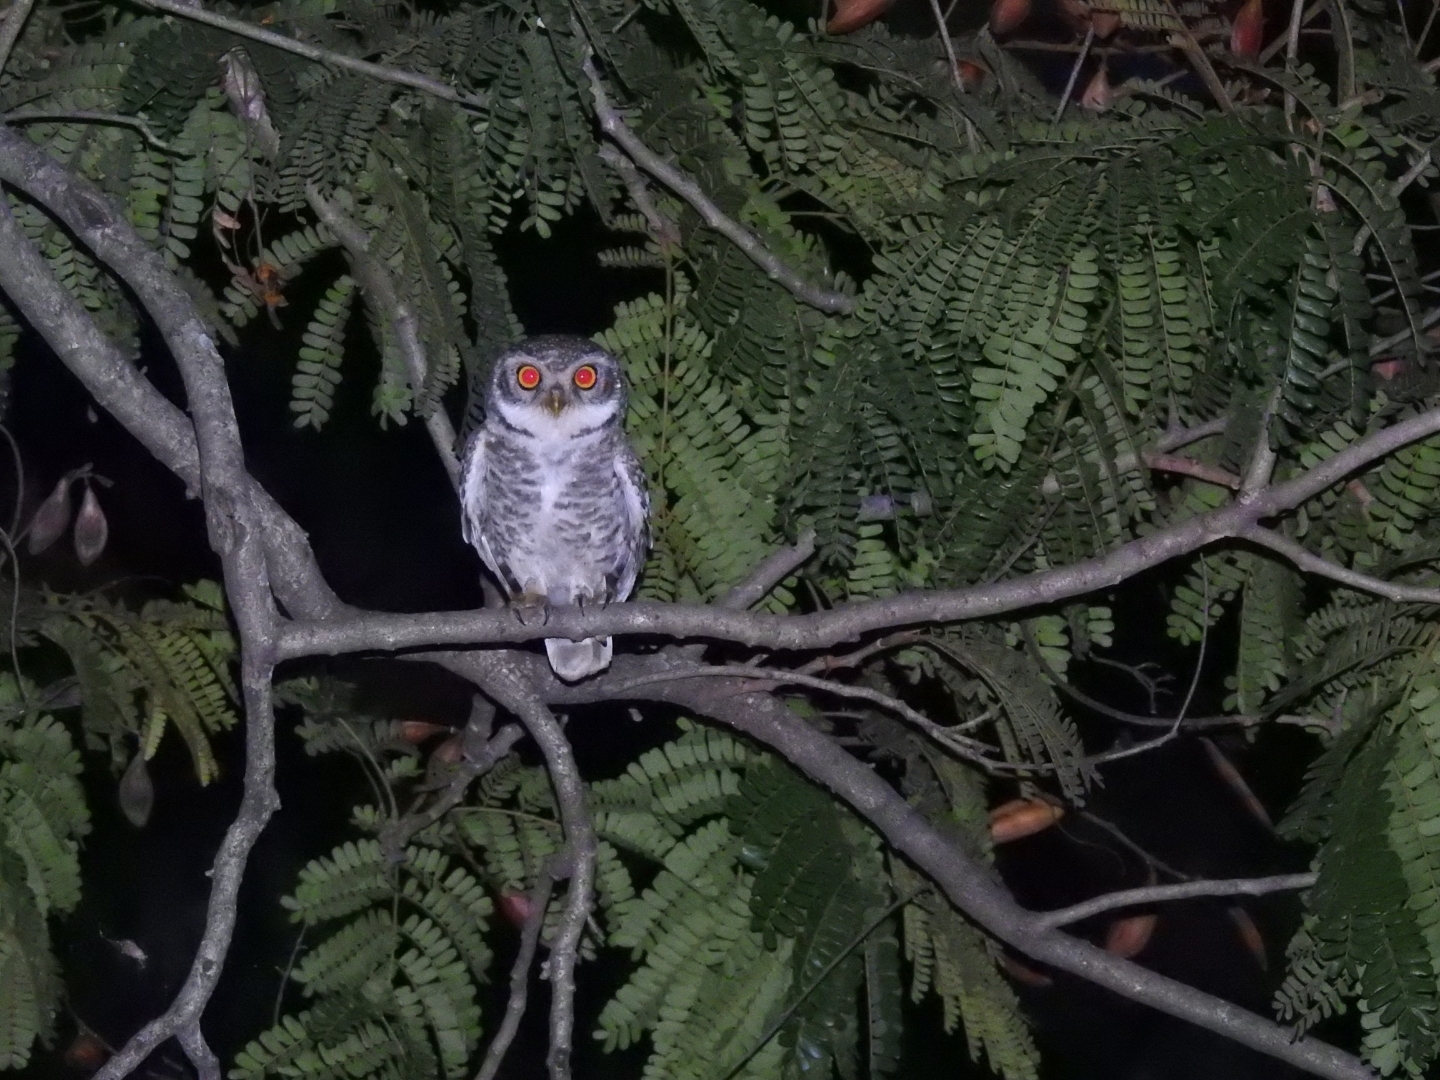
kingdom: Animalia
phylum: Chordata
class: Aves
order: Strigiformes
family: Strigidae
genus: Athene
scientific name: Athene brama
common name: Spotted owlet
